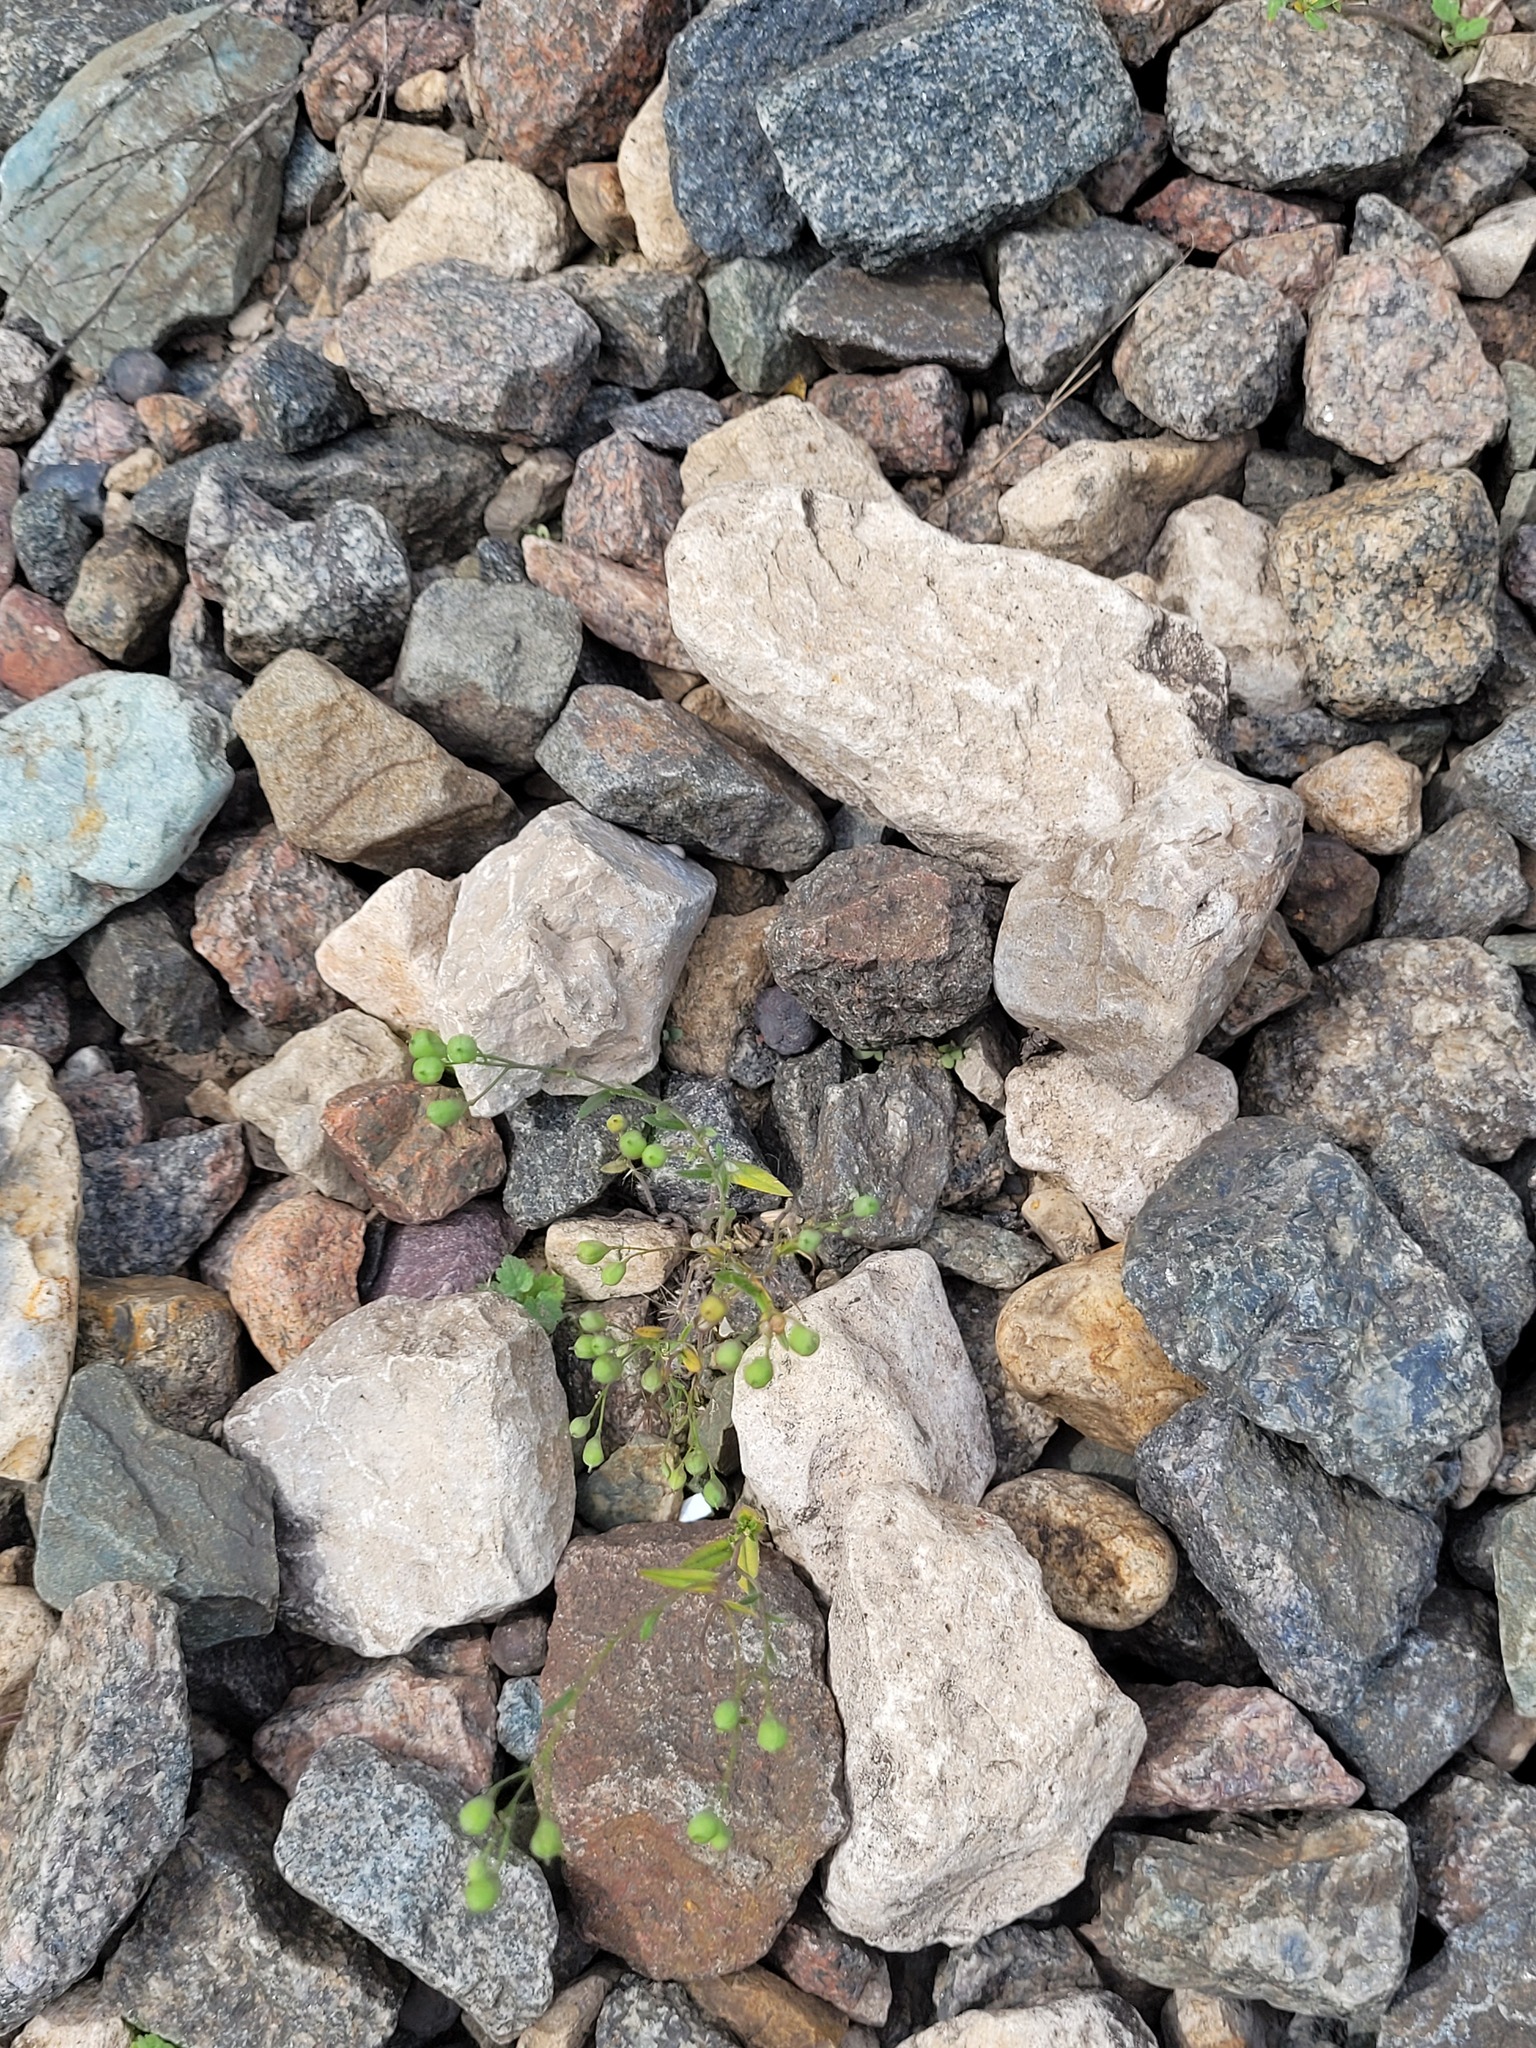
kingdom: Plantae
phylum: Tracheophyta
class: Magnoliopsida
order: Brassicales
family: Brassicaceae
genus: Camelina
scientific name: Camelina sativa
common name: Gold-of-pleasure
